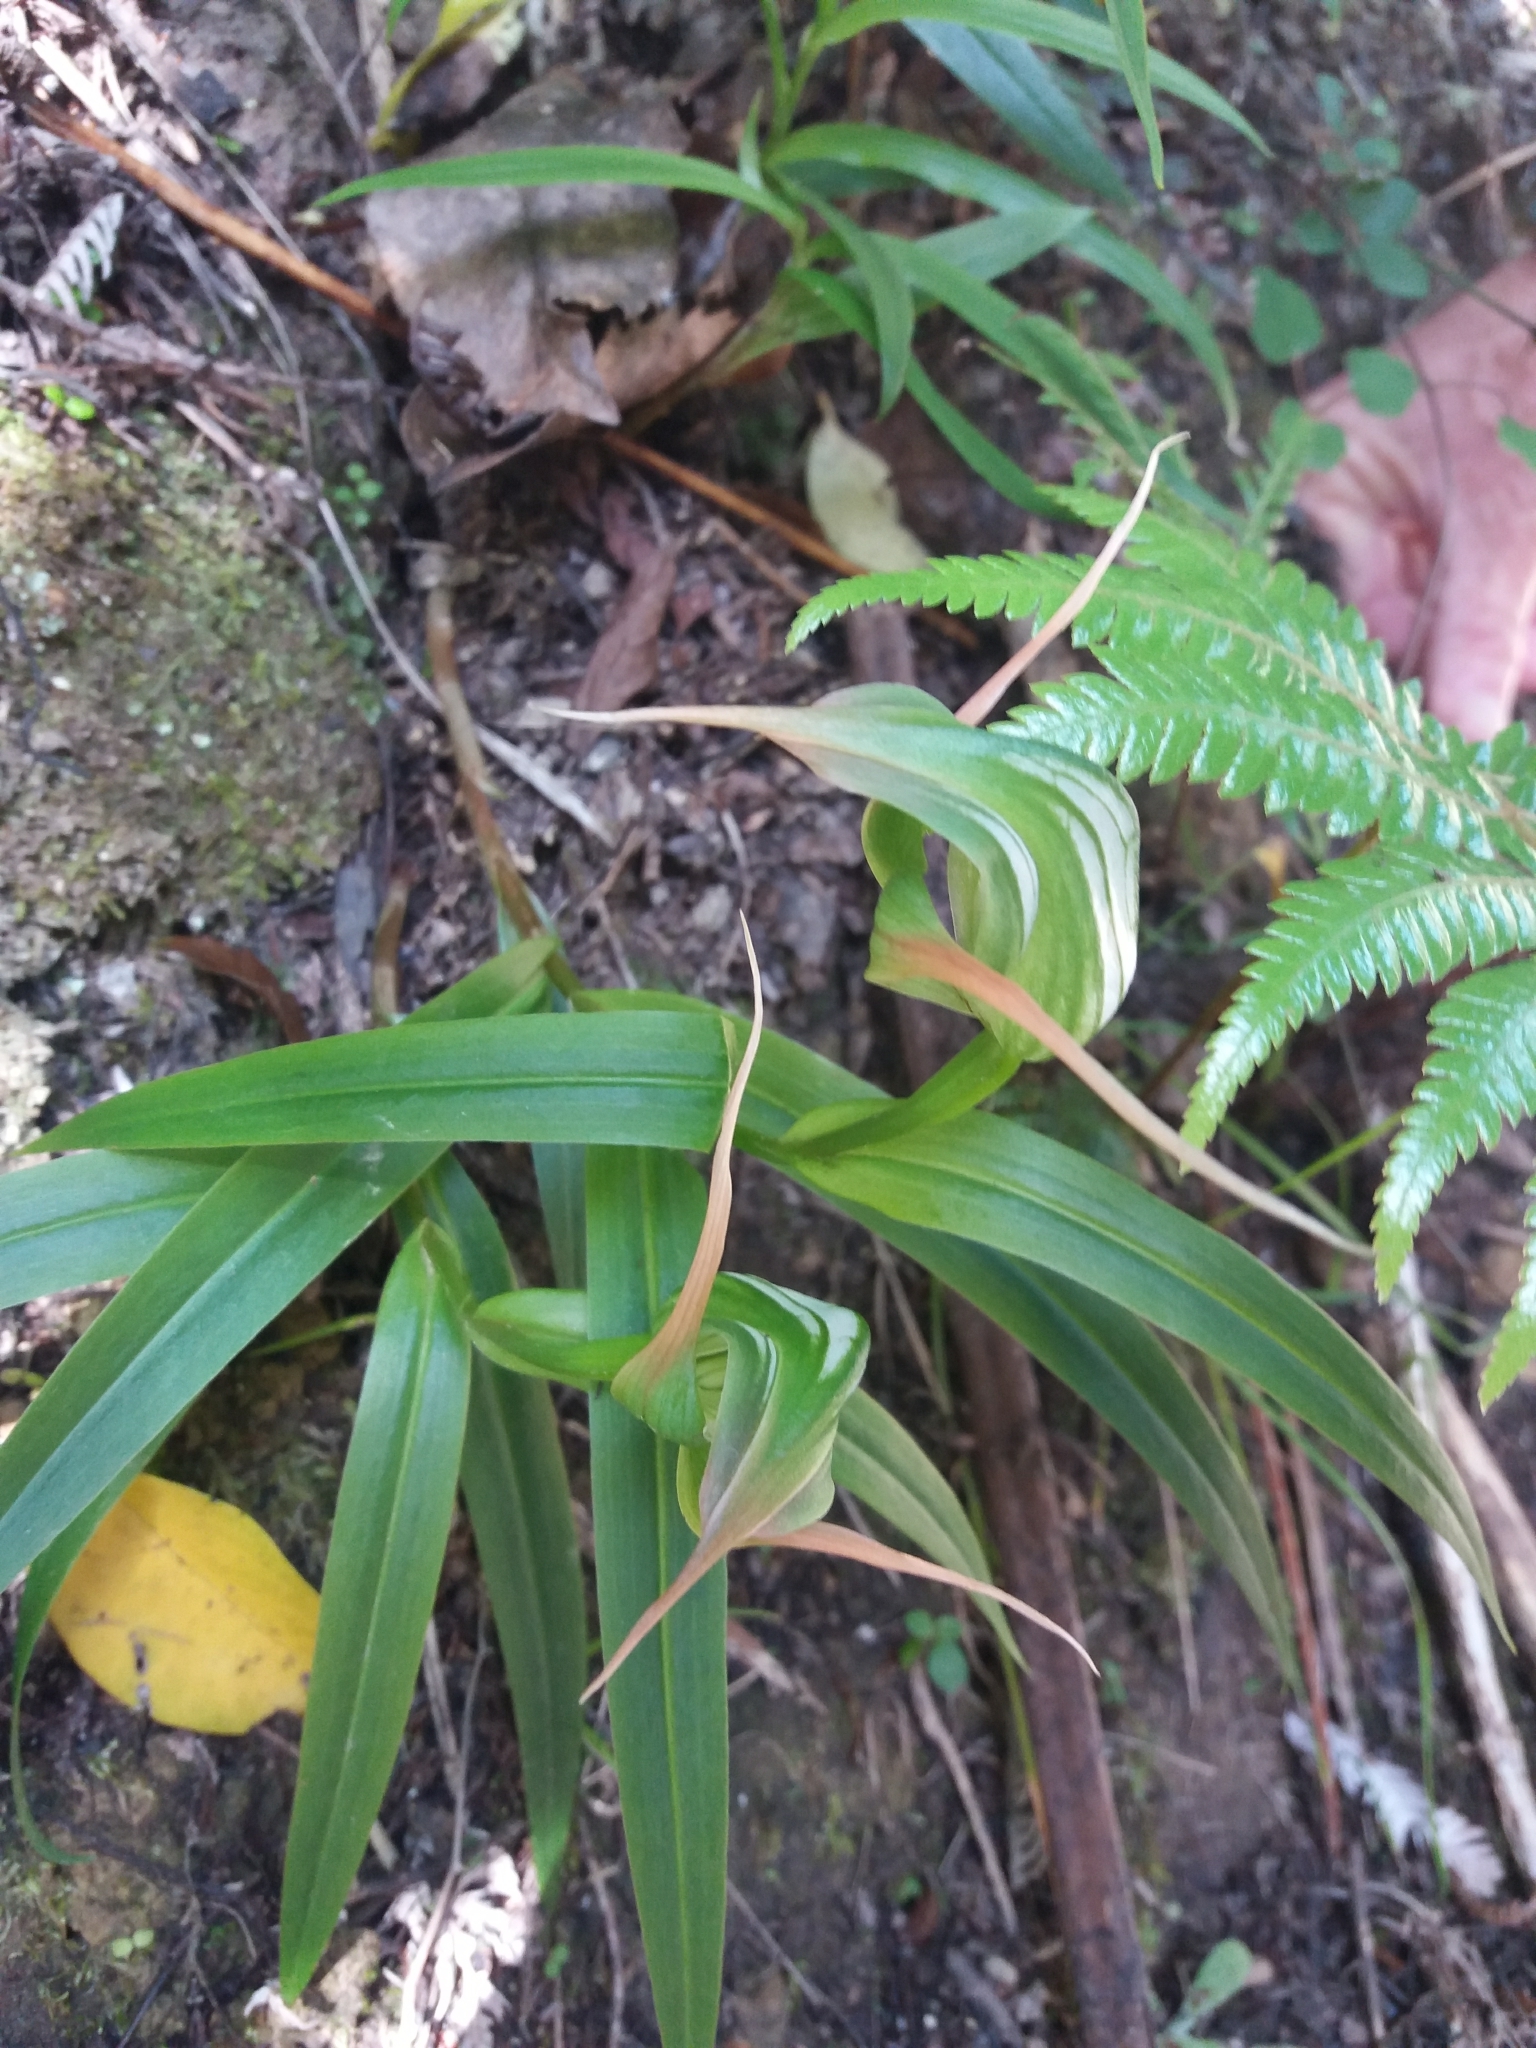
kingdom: Plantae
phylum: Tracheophyta
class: Liliopsida
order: Asparagales
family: Orchidaceae
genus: Pterostylis
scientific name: Pterostylis banksii
